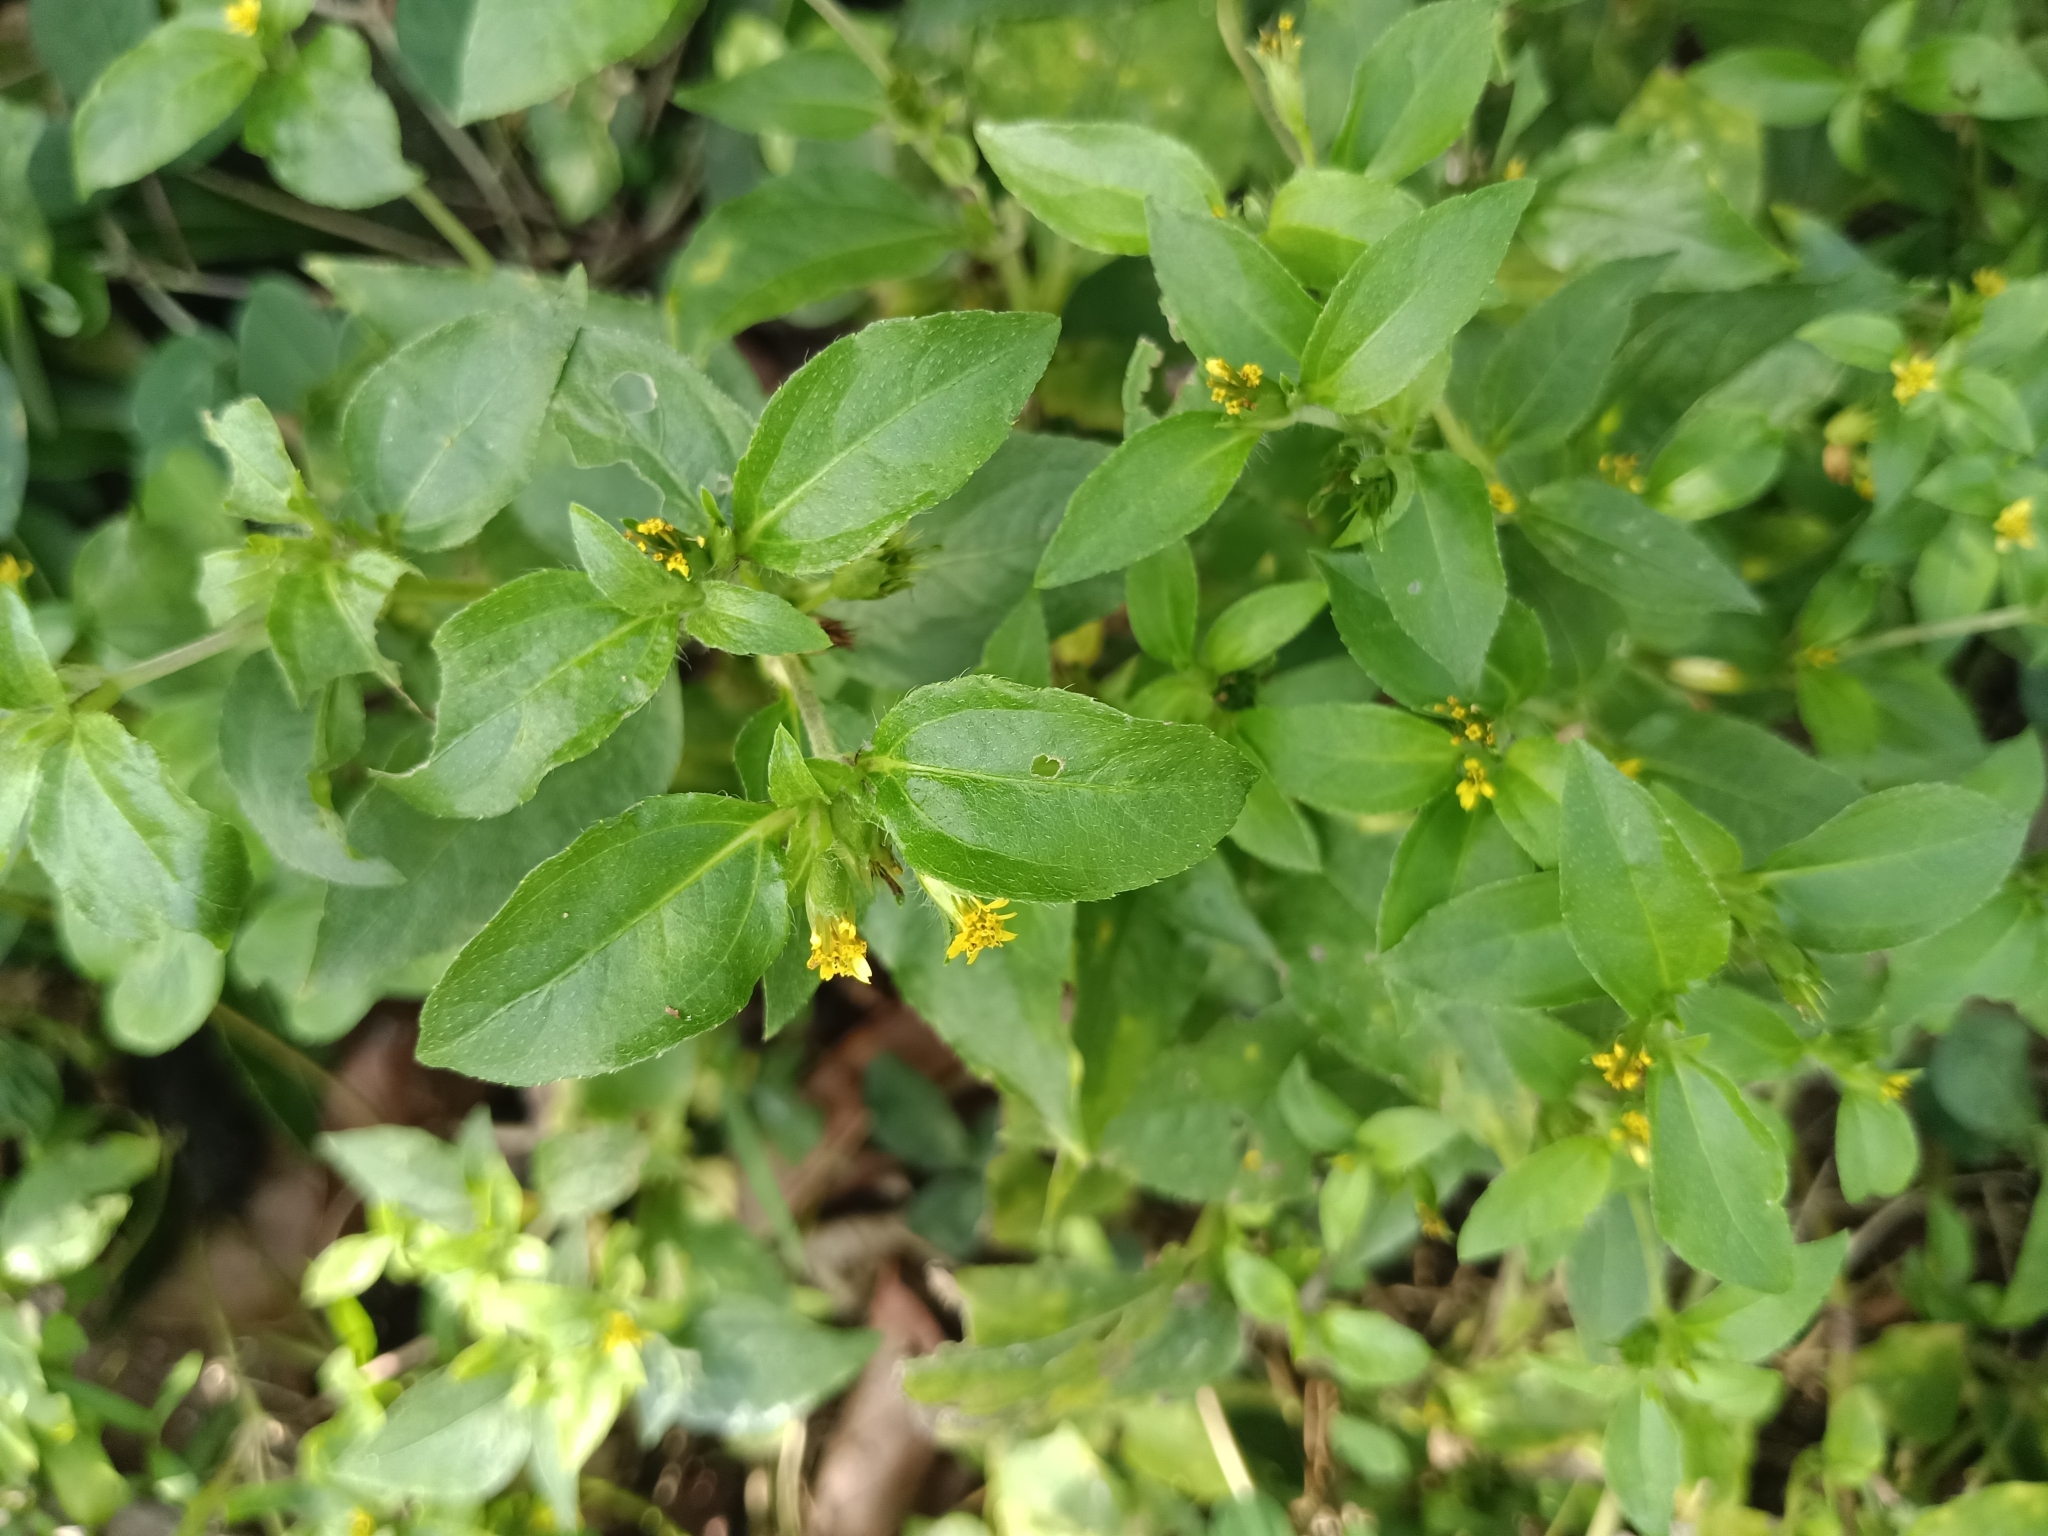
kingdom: Plantae
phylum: Tracheophyta
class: Magnoliopsida
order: Asterales
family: Asteraceae
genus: Synedrella
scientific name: Synedrella nodiflora
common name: Nodeweed
